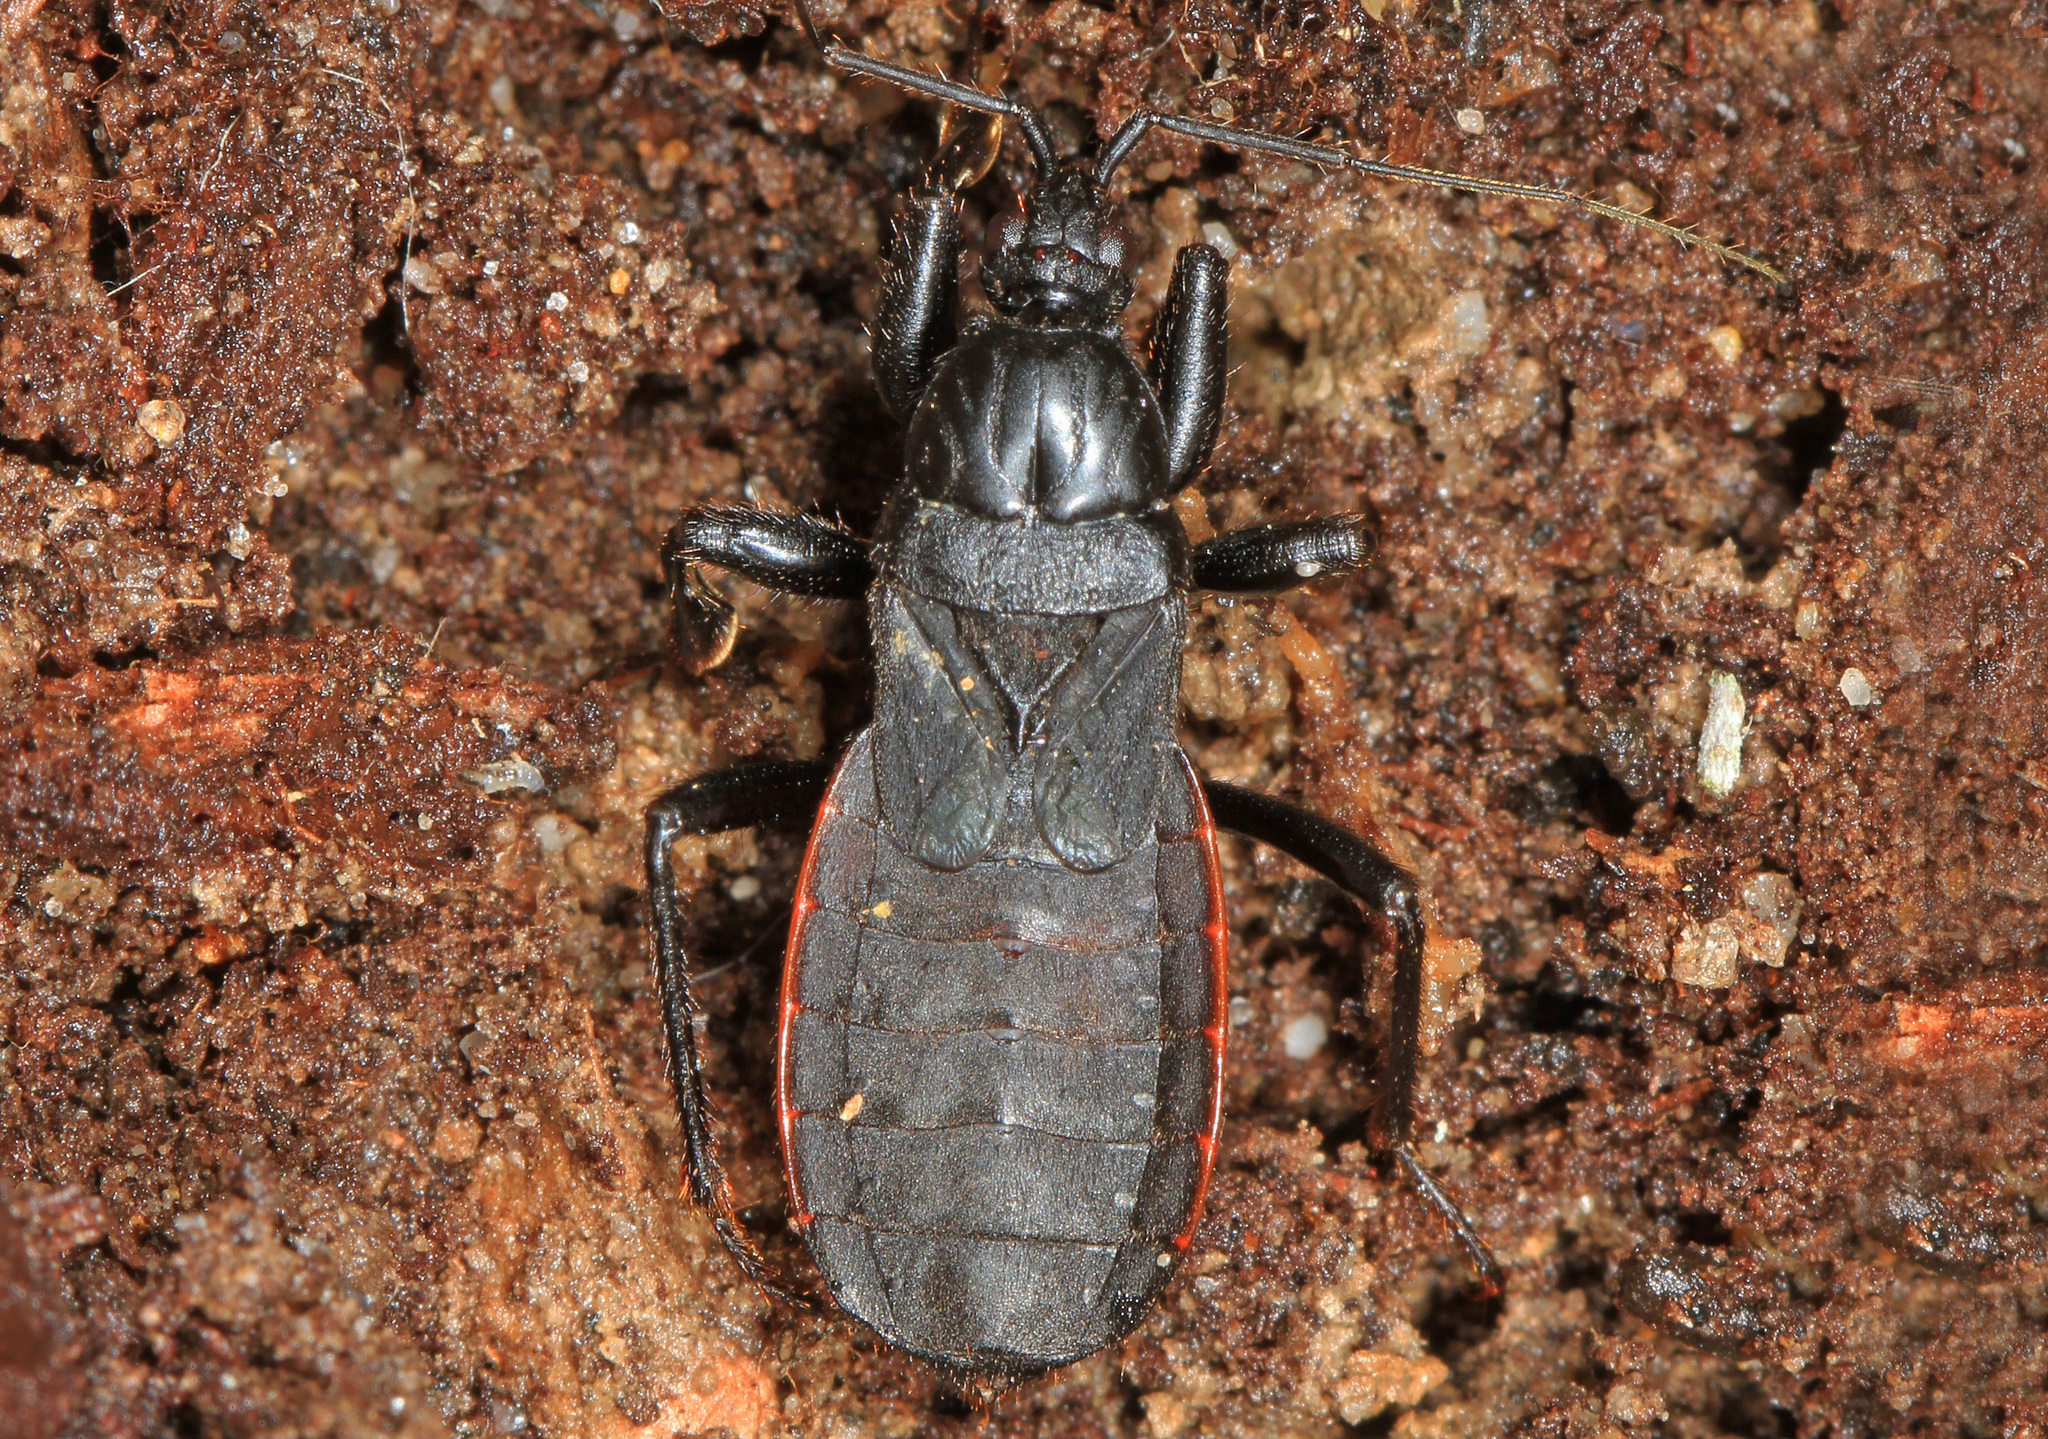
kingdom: Animalia
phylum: Arthropoda
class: Insecta
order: Hemiptera
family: Reduviidae
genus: Melanolestes
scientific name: Melanolestes picipes
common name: Assassin bug
